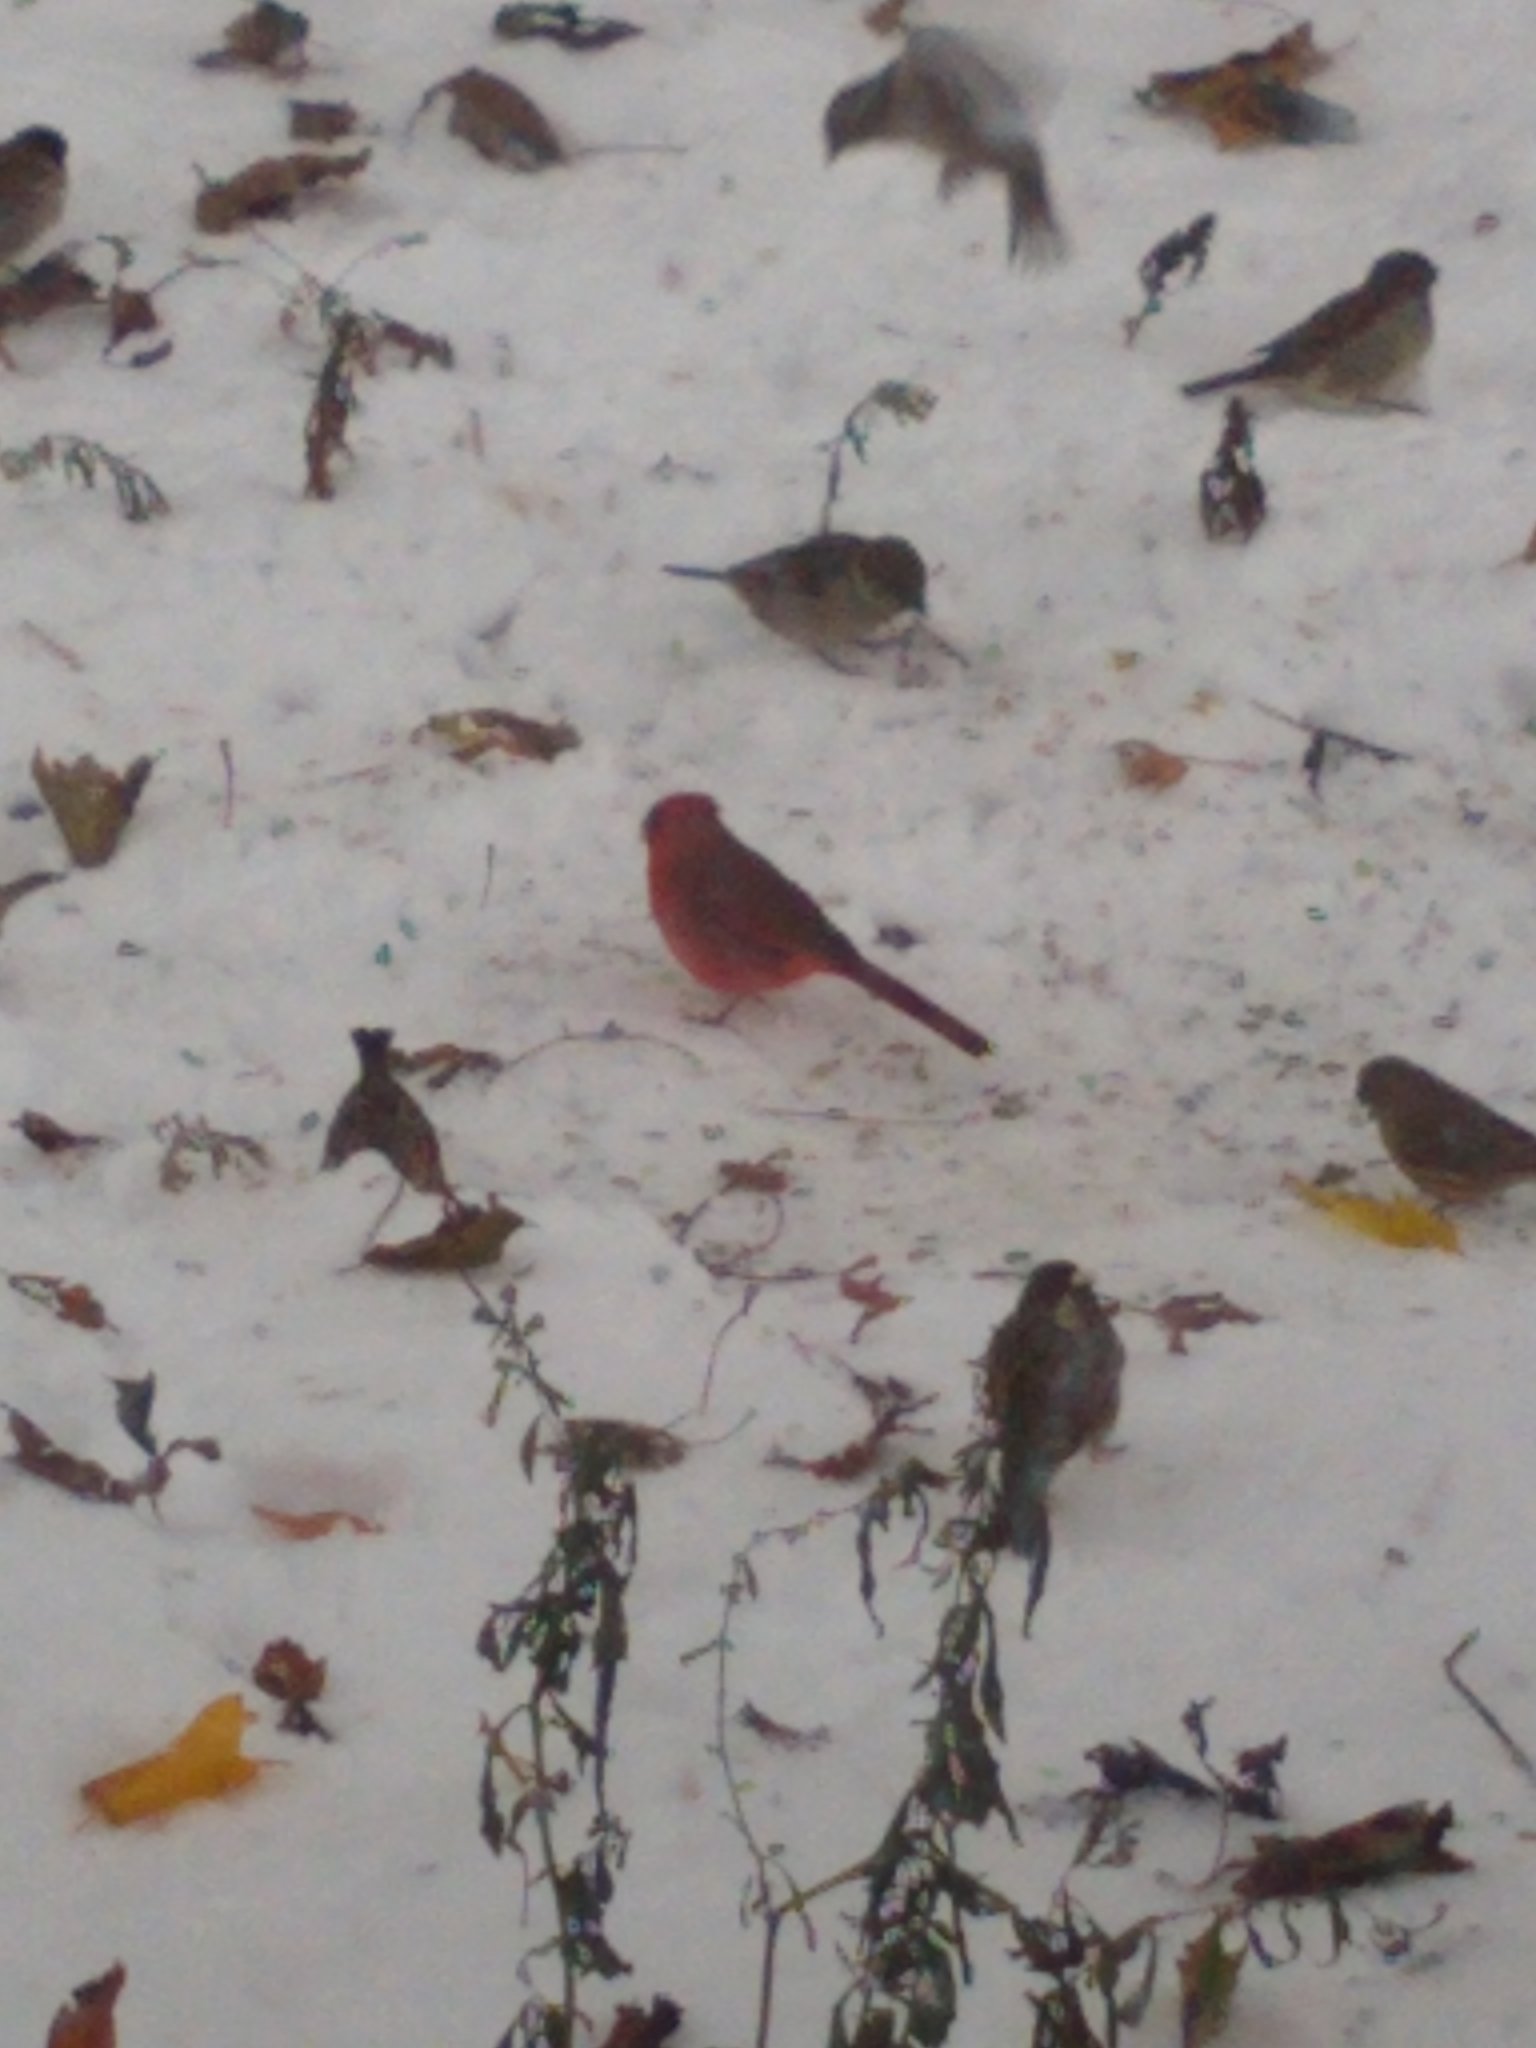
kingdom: Animalia
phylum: Chordata
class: Aves
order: Passeriformes
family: Cardinalidae
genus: Cardinalis
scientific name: Cardinalis cardinalis
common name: Northern cardinal
